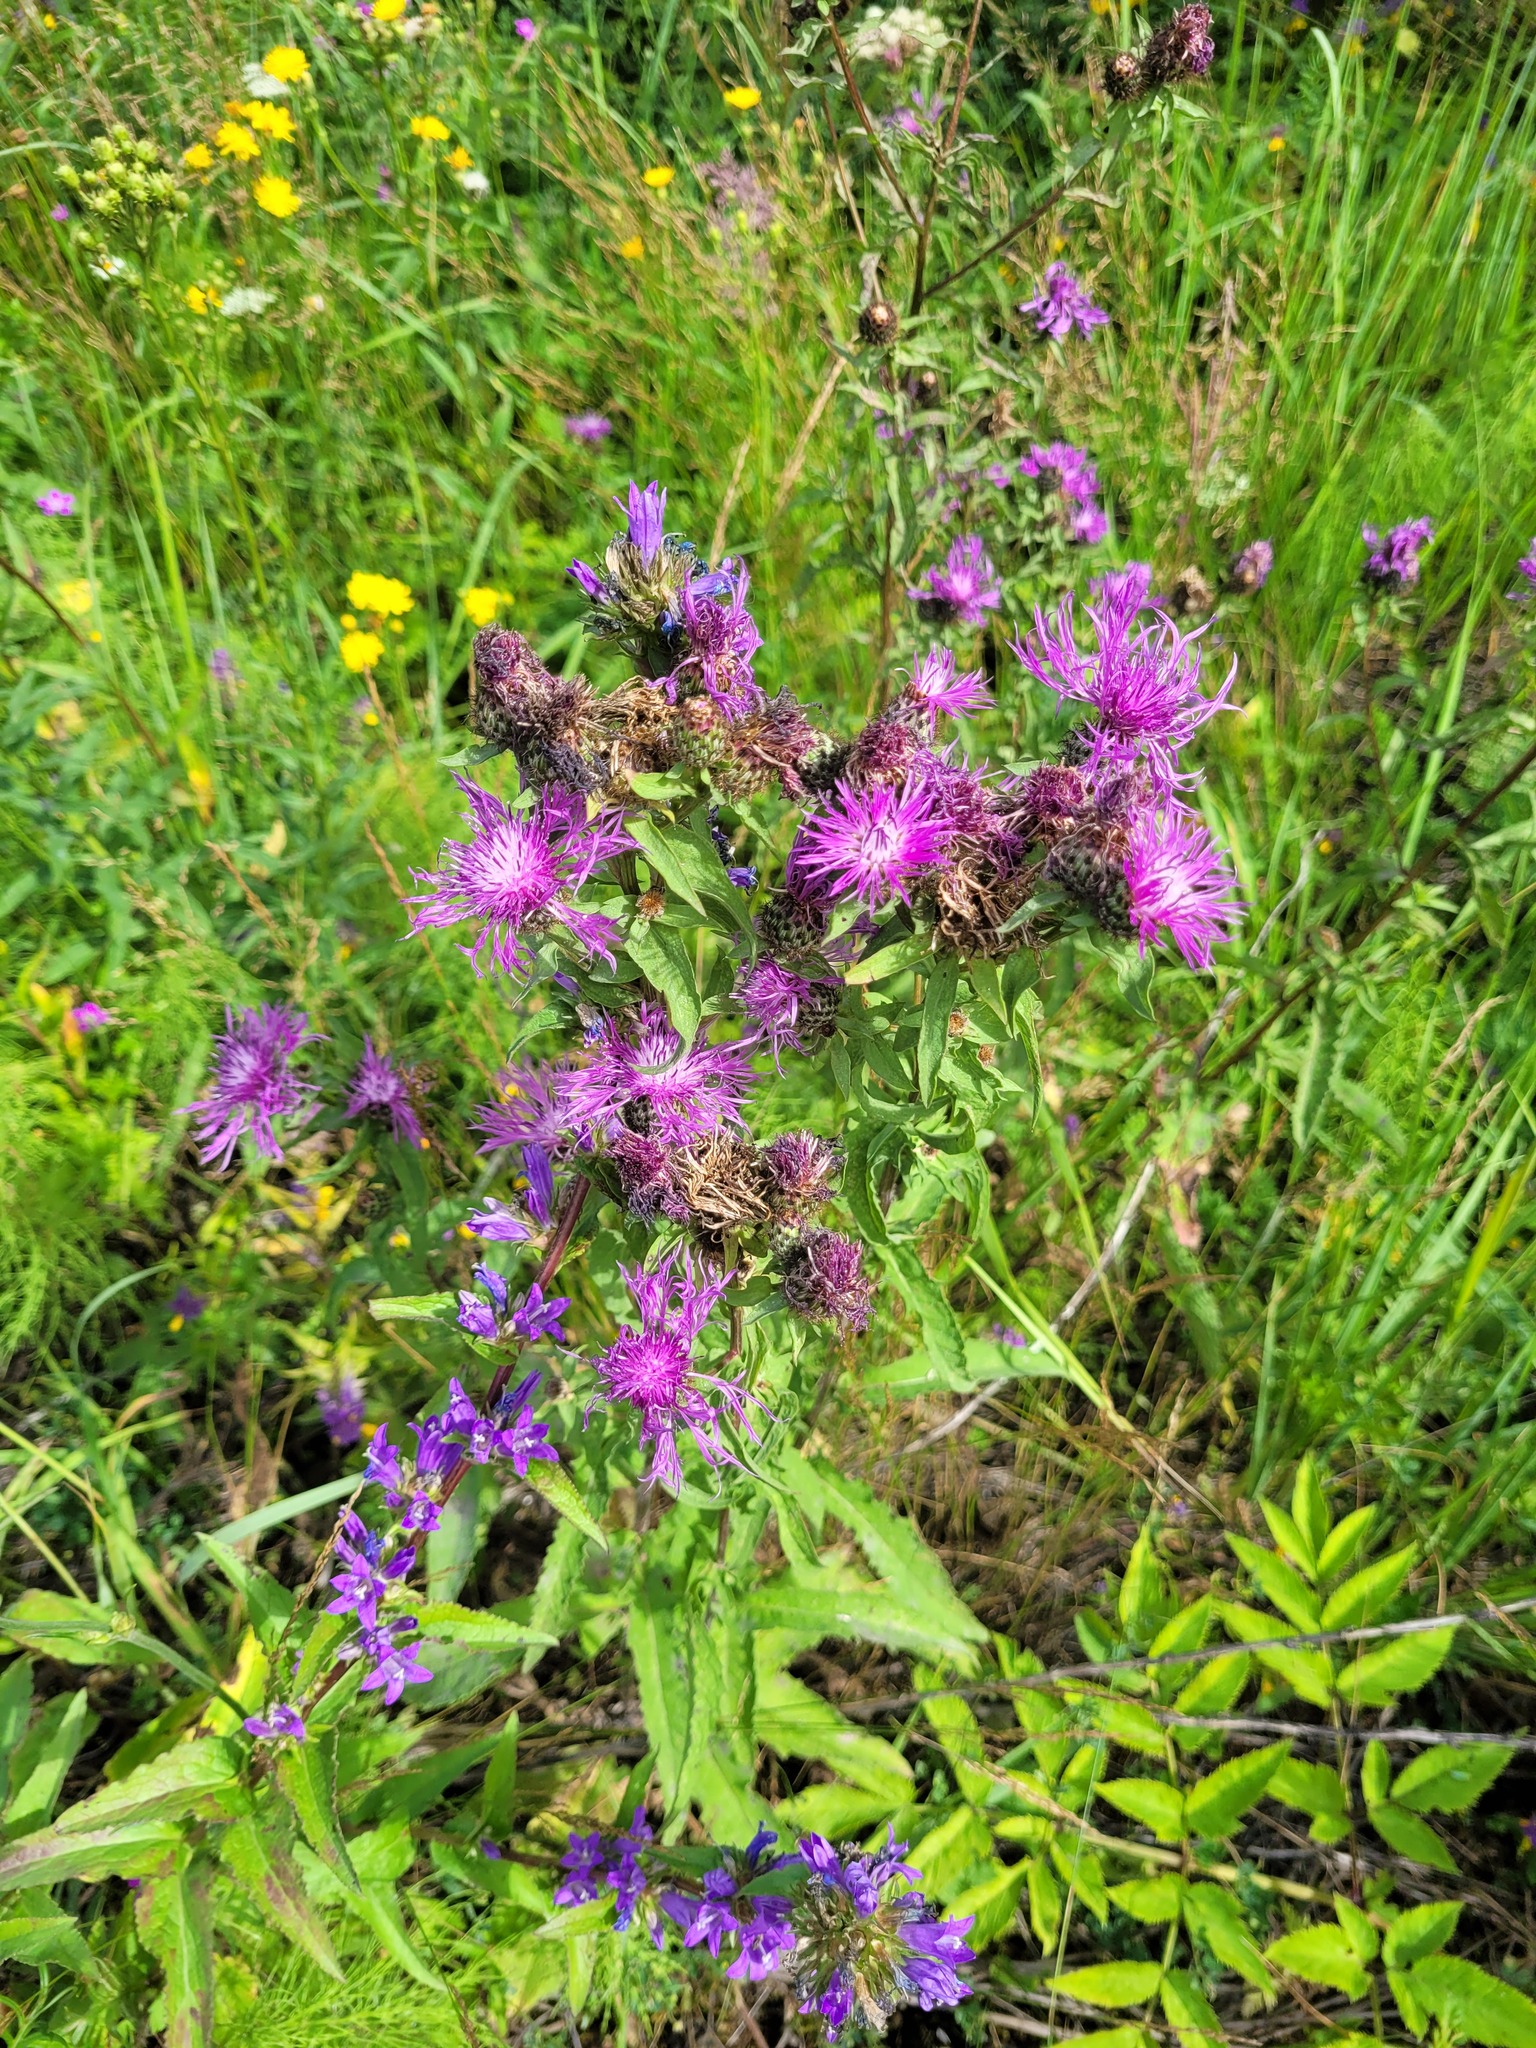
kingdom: Plantae
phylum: Tracheophyta
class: Magnoliopsida
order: Asterales
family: Asteraceae
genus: Centaurea
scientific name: Centaurea phrygia
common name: Wig knapweed
